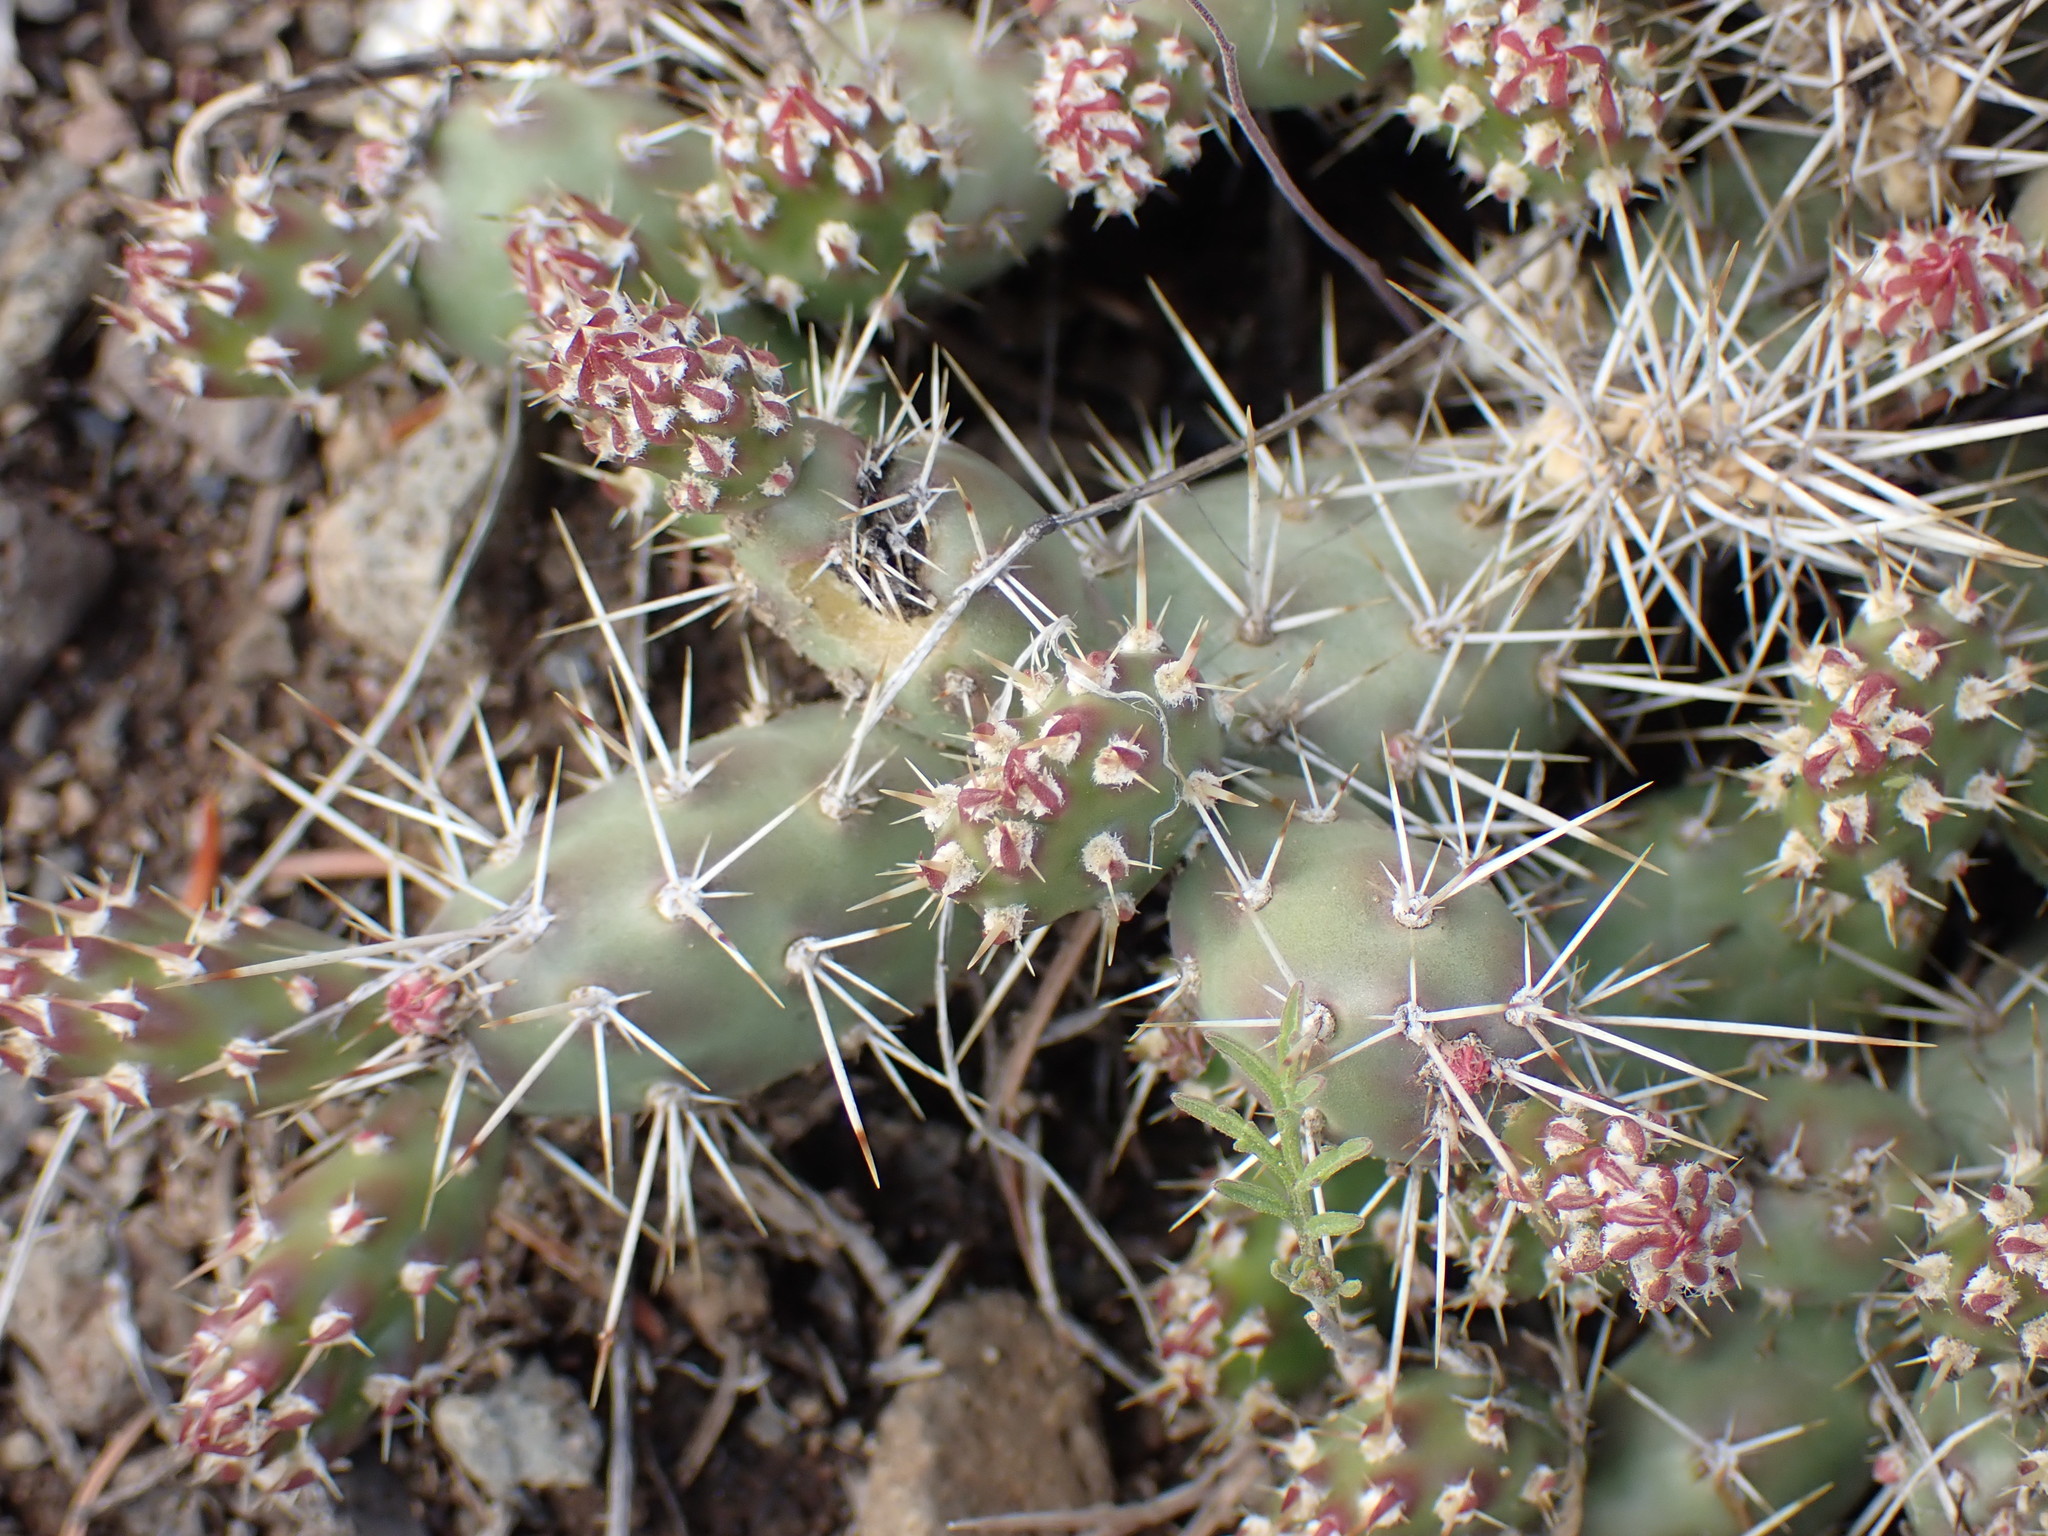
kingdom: Plantae
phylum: Tracheophyta
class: Magnoliopsida
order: Caryophyllales
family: Cactaceae
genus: Opuntia
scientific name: Opuntia fragilis
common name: Brittle cactus
